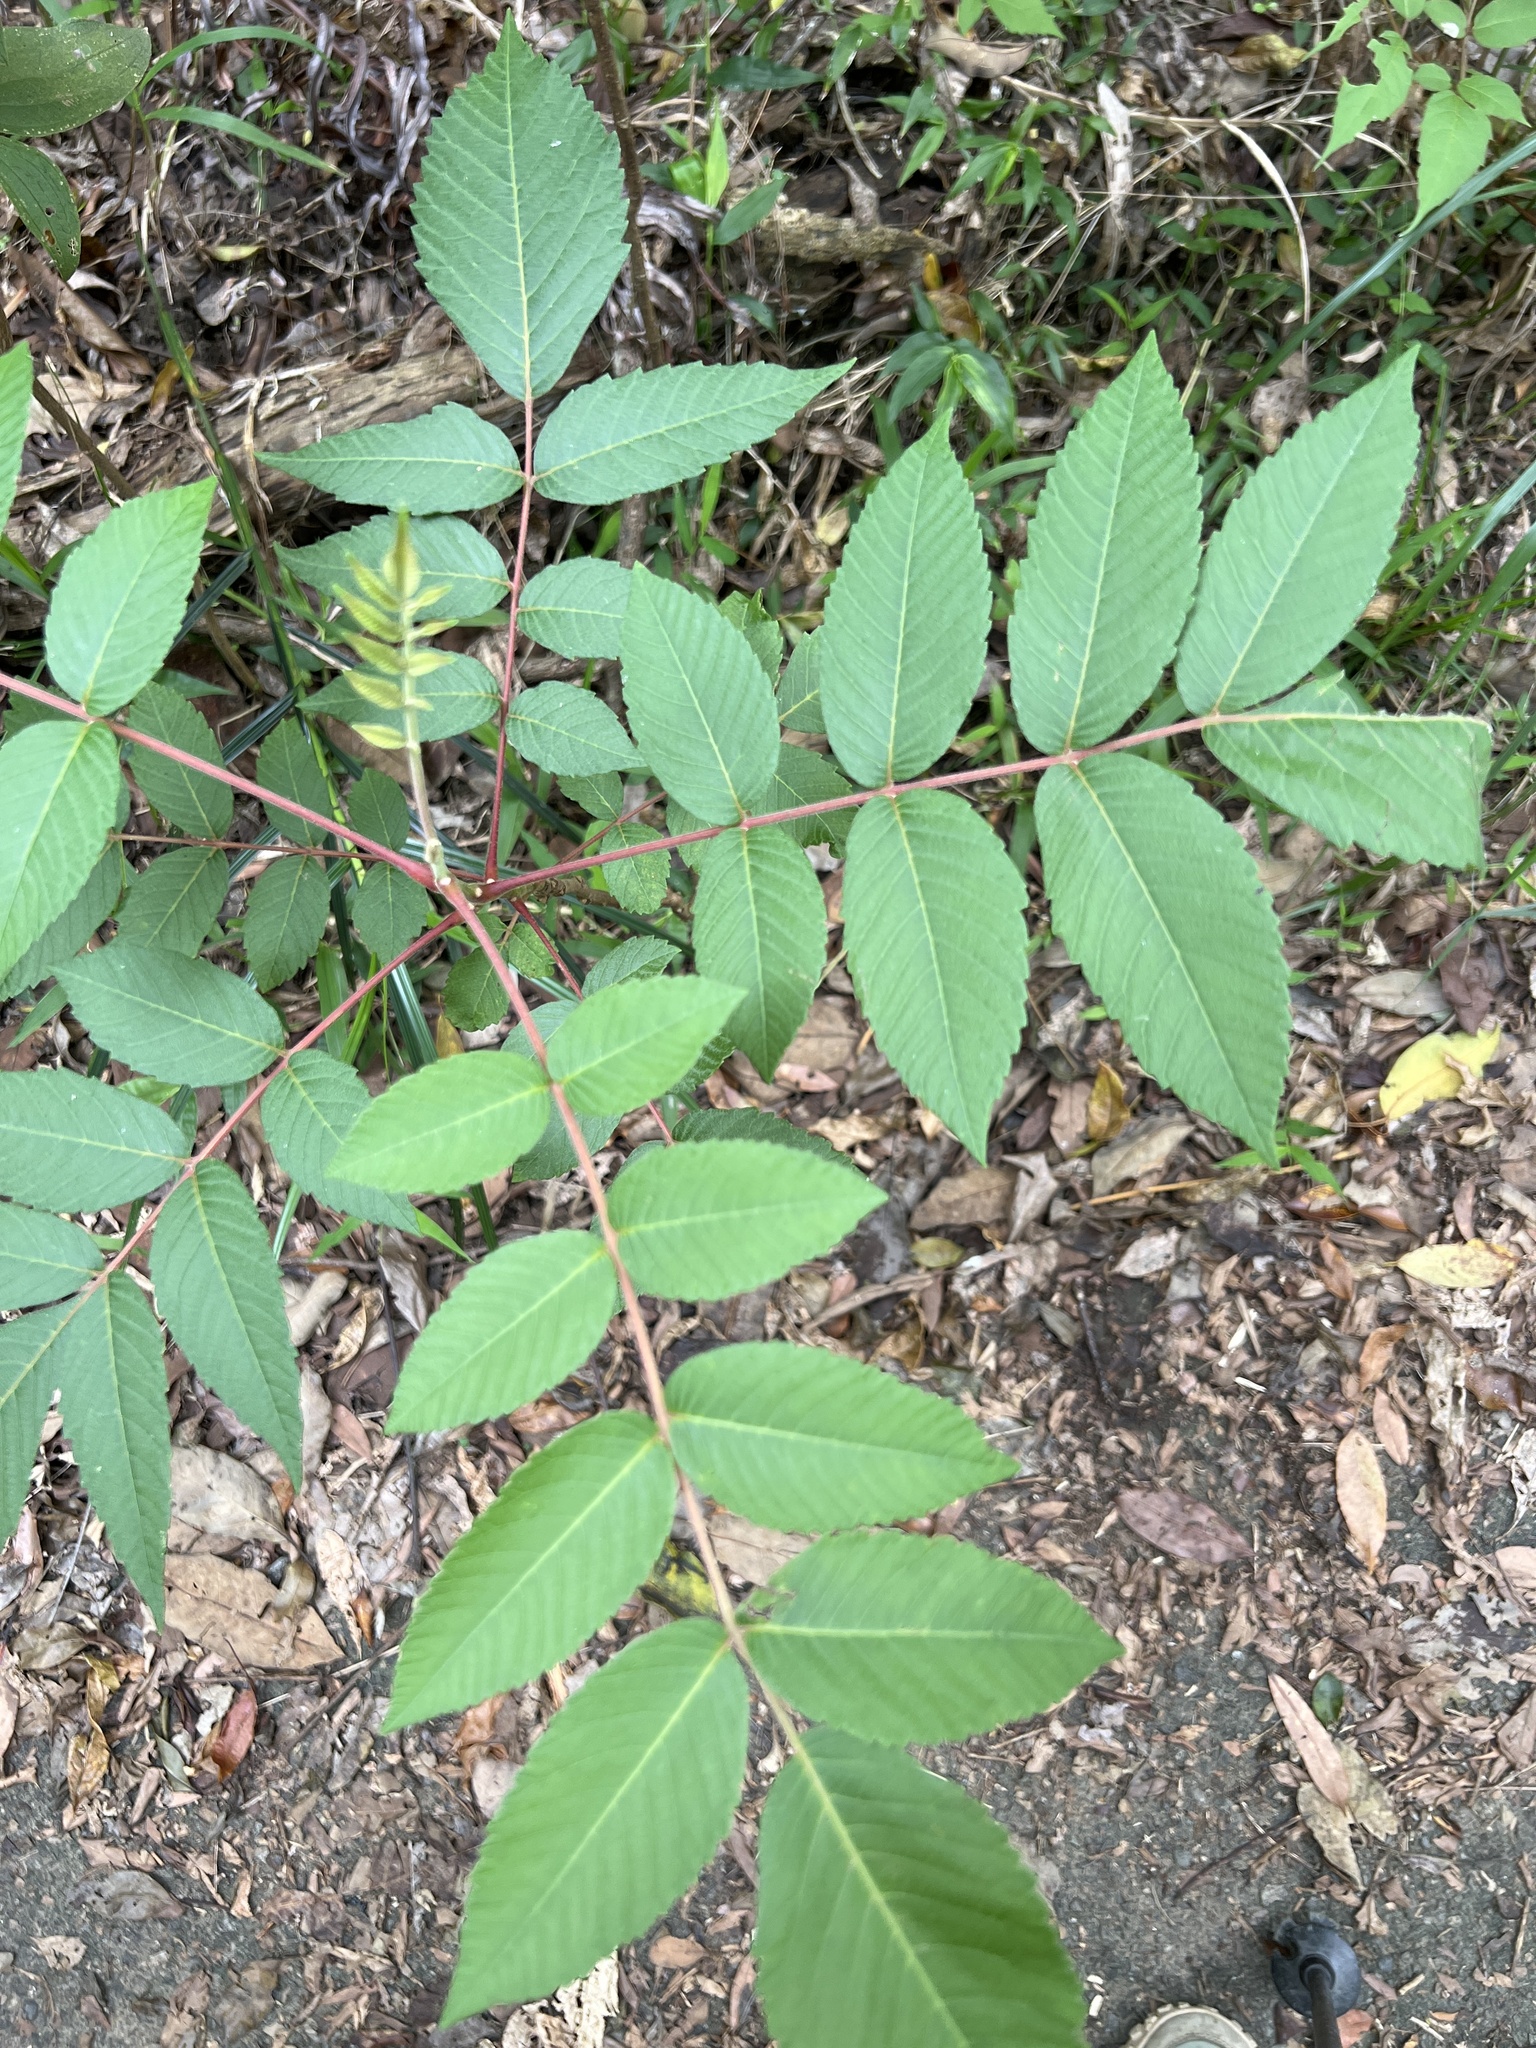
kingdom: Plantae
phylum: Tracheophyta
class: Magnoliopsida
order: Sapindales
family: Anacardiaceae
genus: Rhus
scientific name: Rhus chinensis
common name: Chinese gall
